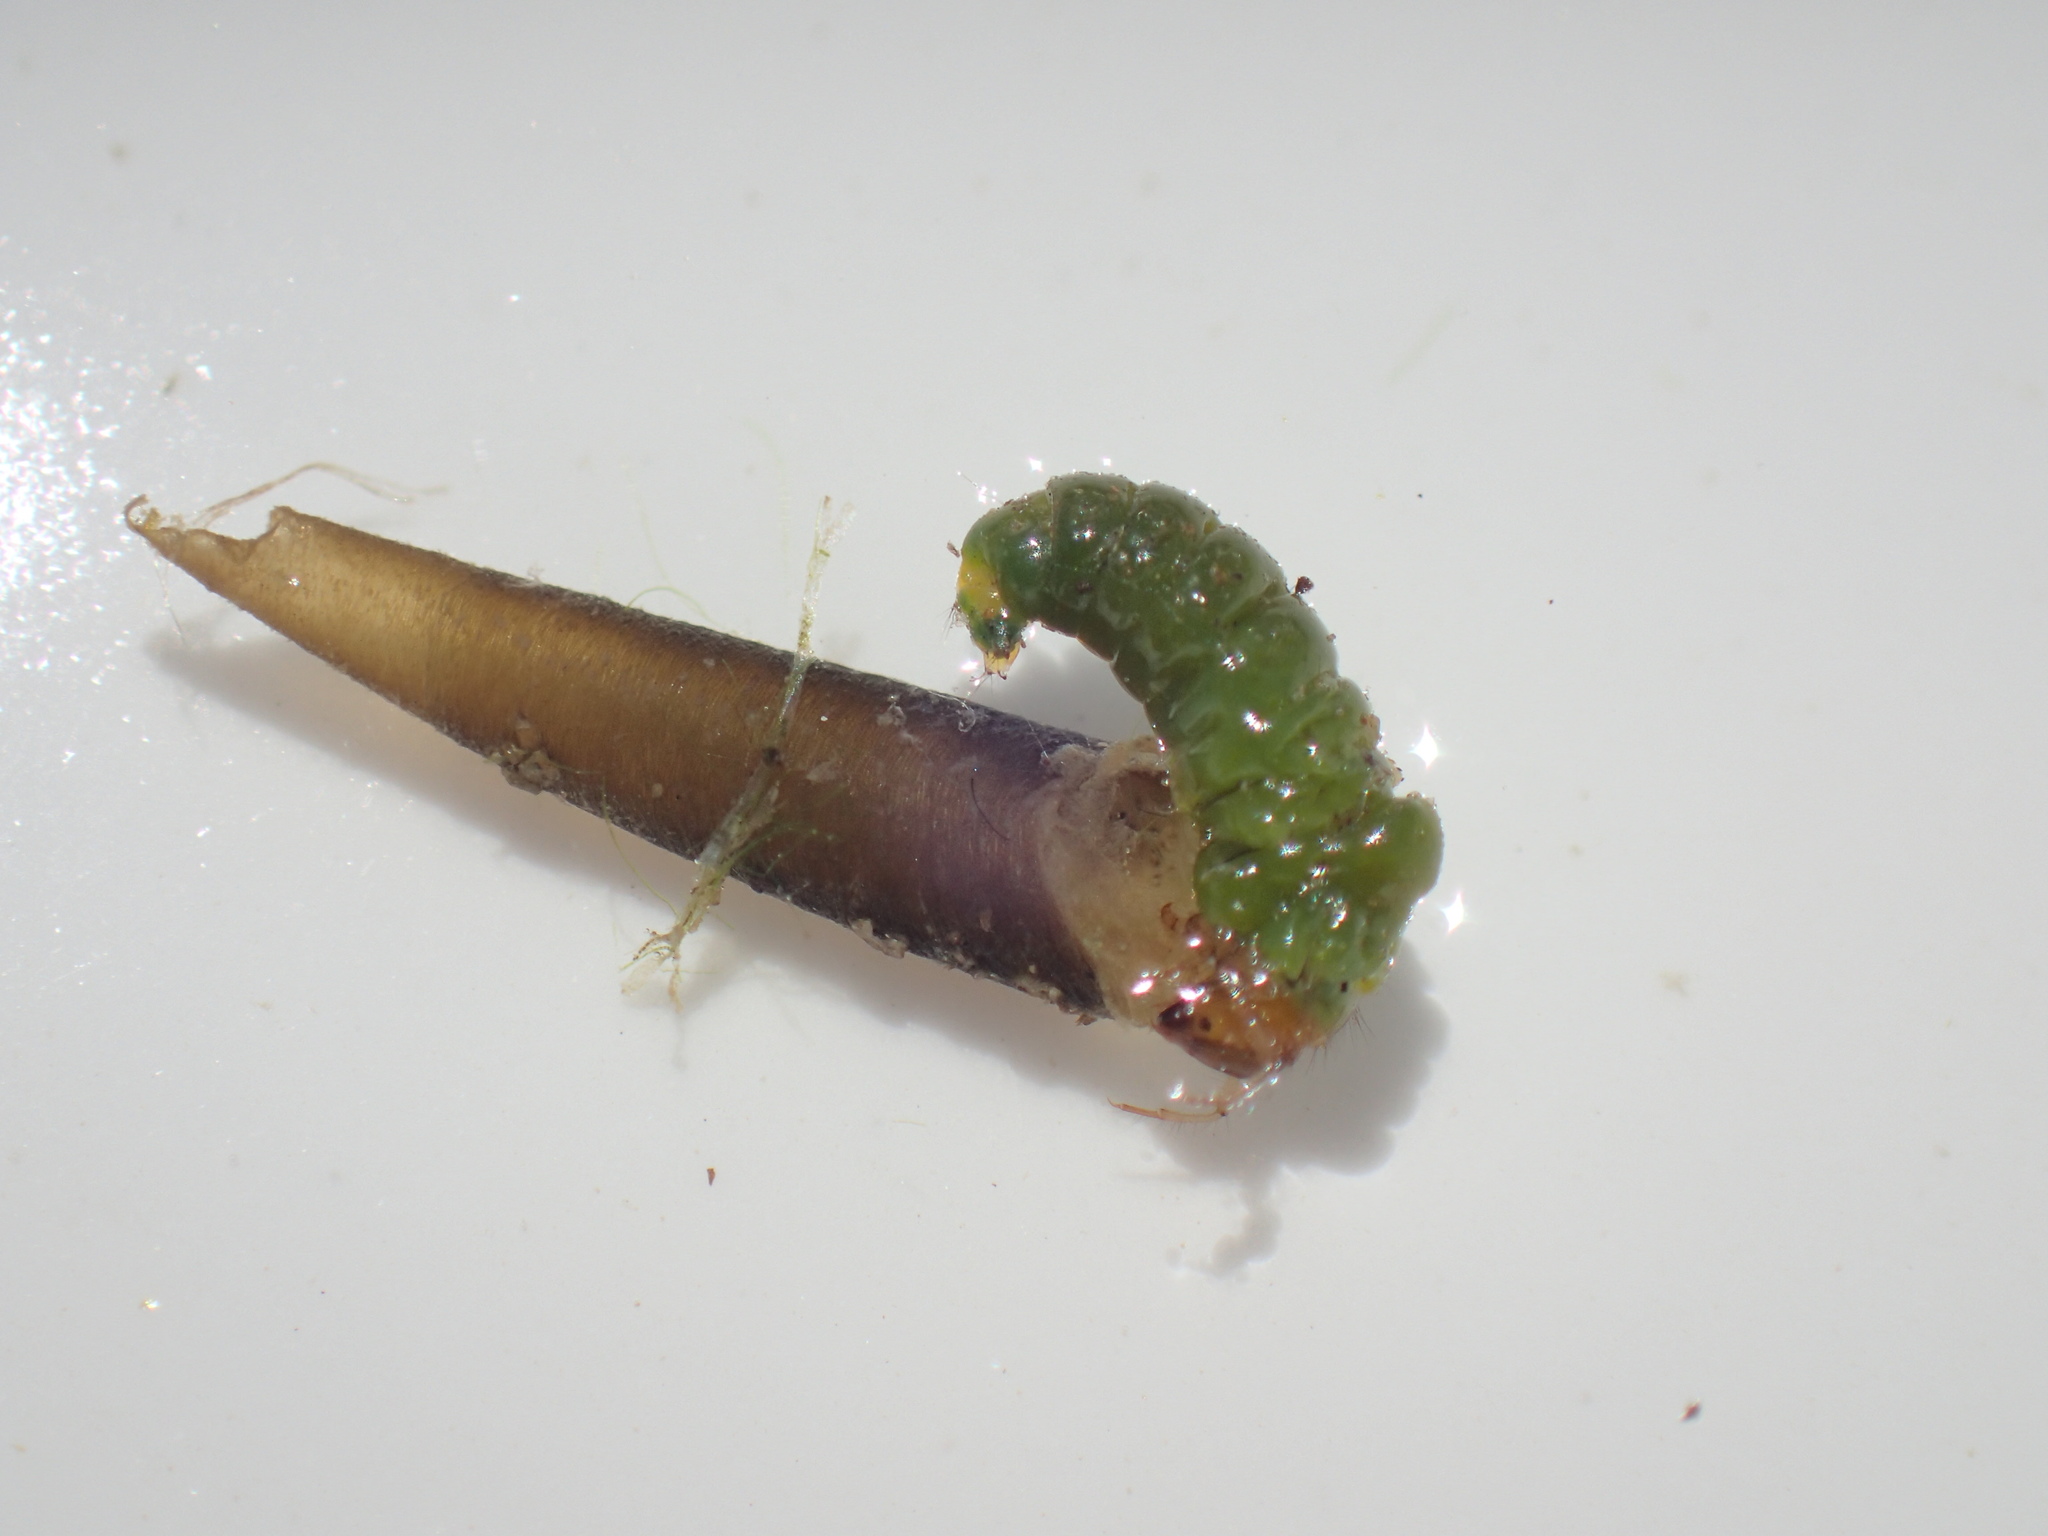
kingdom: Animalia
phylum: Arthropoda
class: Insecta
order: Trichoptera
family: Leptoceridae
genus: Ceraclea
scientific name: Ceraclea schoutedeni
